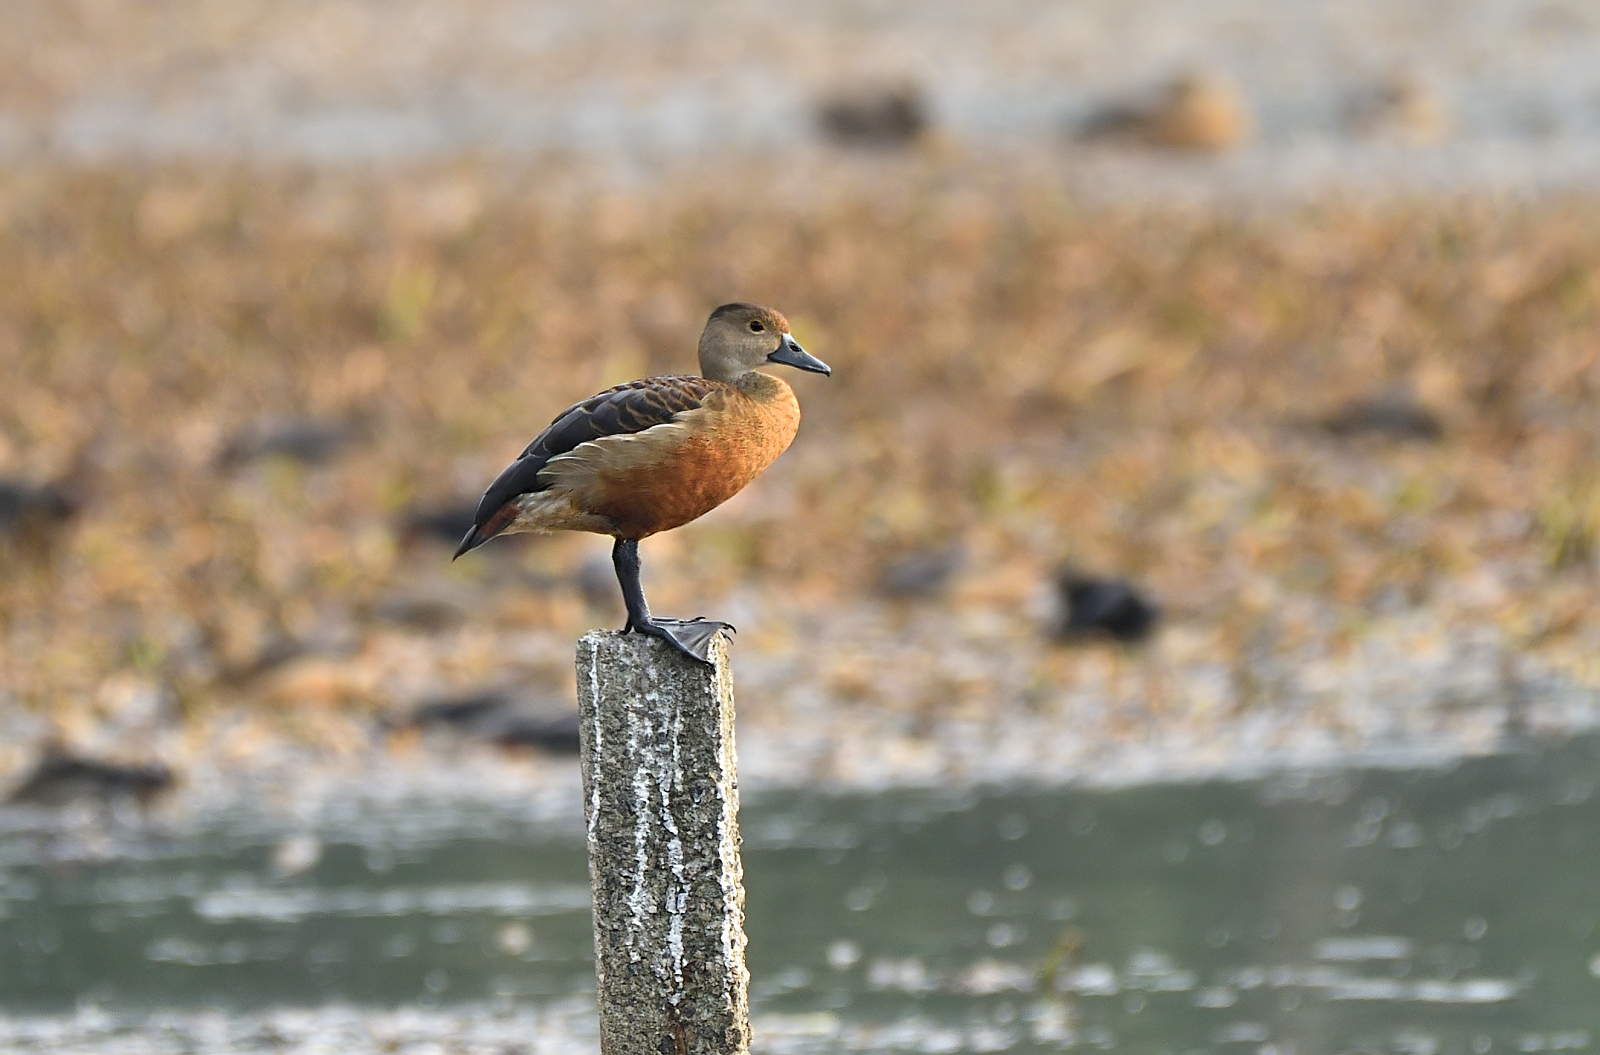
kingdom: Animalia
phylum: Chordata
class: Aves
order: Anseriformes
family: Anatidae
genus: Dendrocygna
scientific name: Dendrocygna javanica
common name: Lesser whistling-duck
